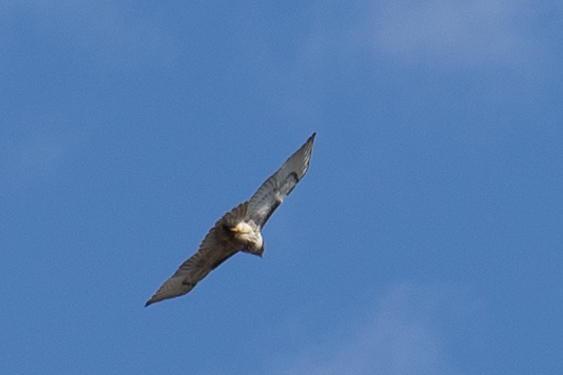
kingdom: Animalia
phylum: Chordata
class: Aves
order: Accipitriformes
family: Accipitridae
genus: Buteo
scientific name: Buteo jamaicensis
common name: Red-tailed hawk
